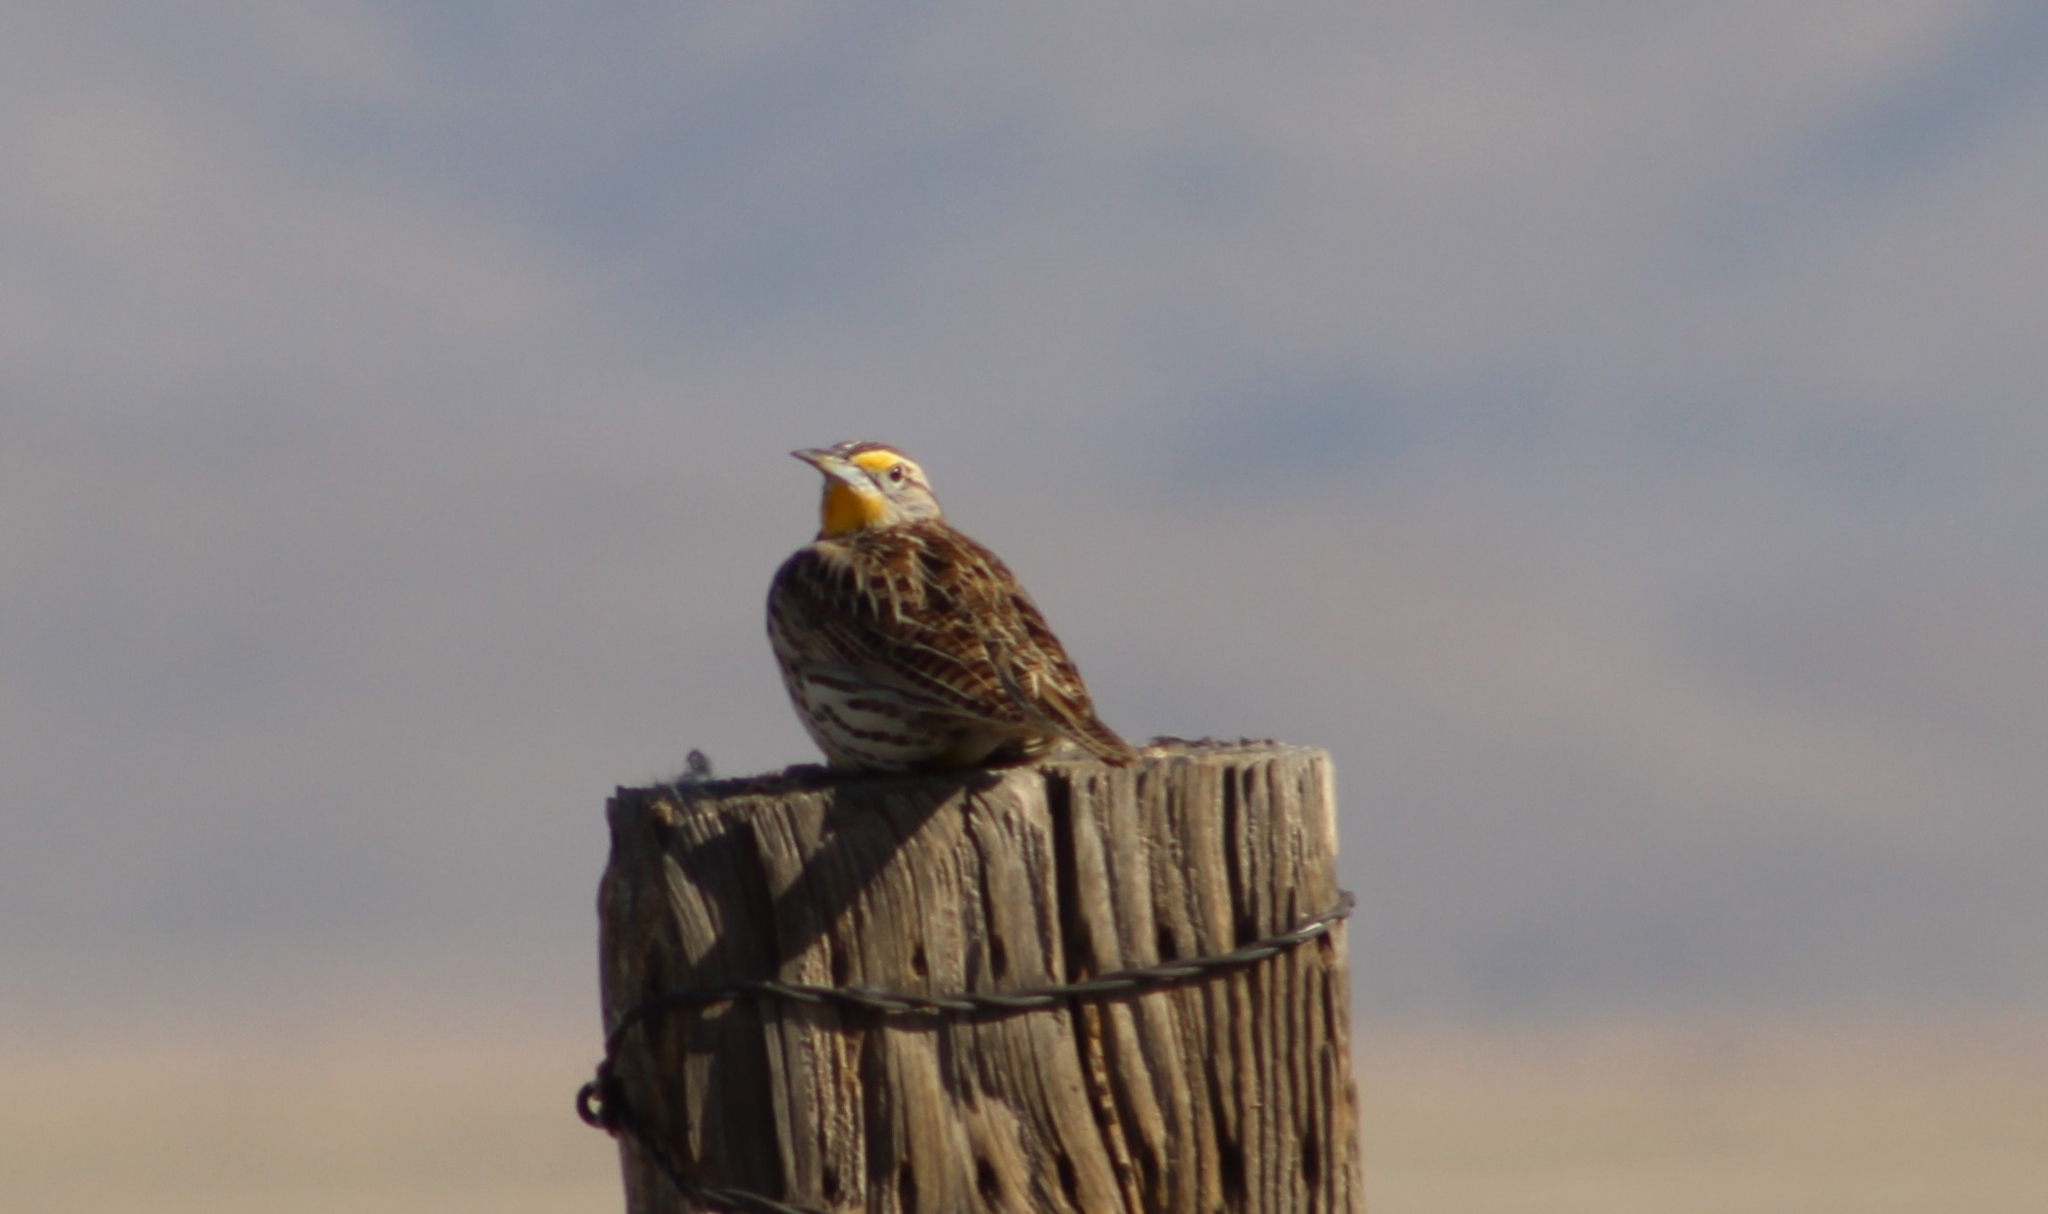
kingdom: Animalia
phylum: Chordata
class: Aves
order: Passeriformes
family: Icteridae
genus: Sturnella
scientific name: Sturnella neglecta
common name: Western meadowlark
